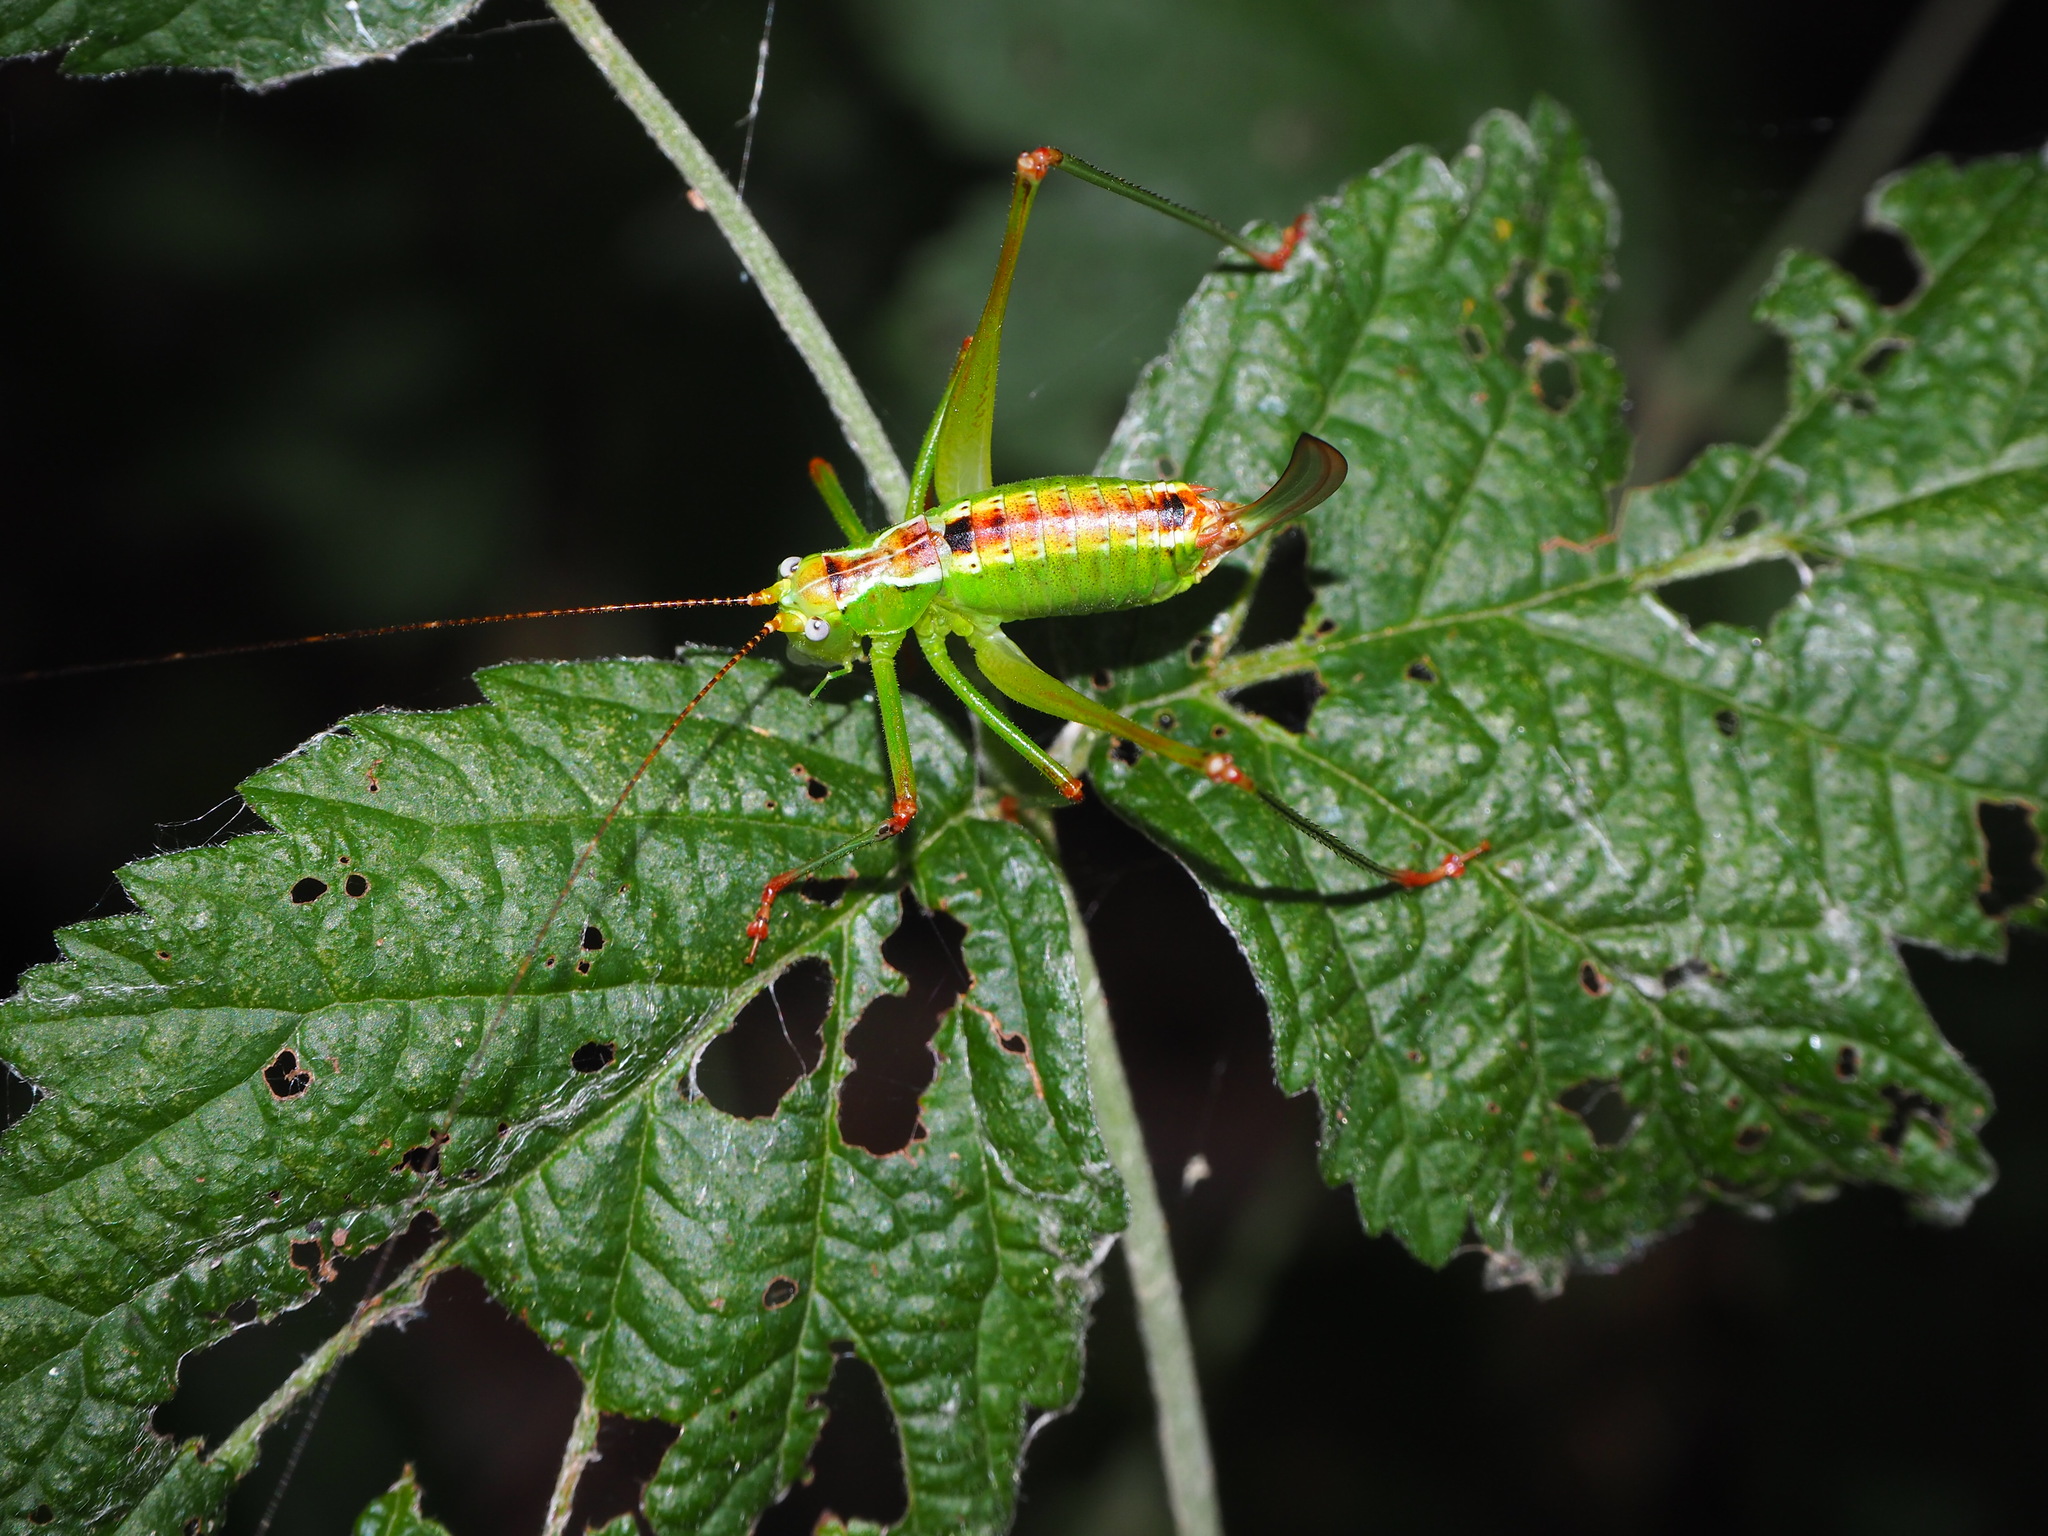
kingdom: Animalia
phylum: Arthropoda
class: Insecta
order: Orthoptera
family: Tettigoniidae
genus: Andreiniimon
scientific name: Andreiniimon nuptialis
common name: Splendid bush-cricket
